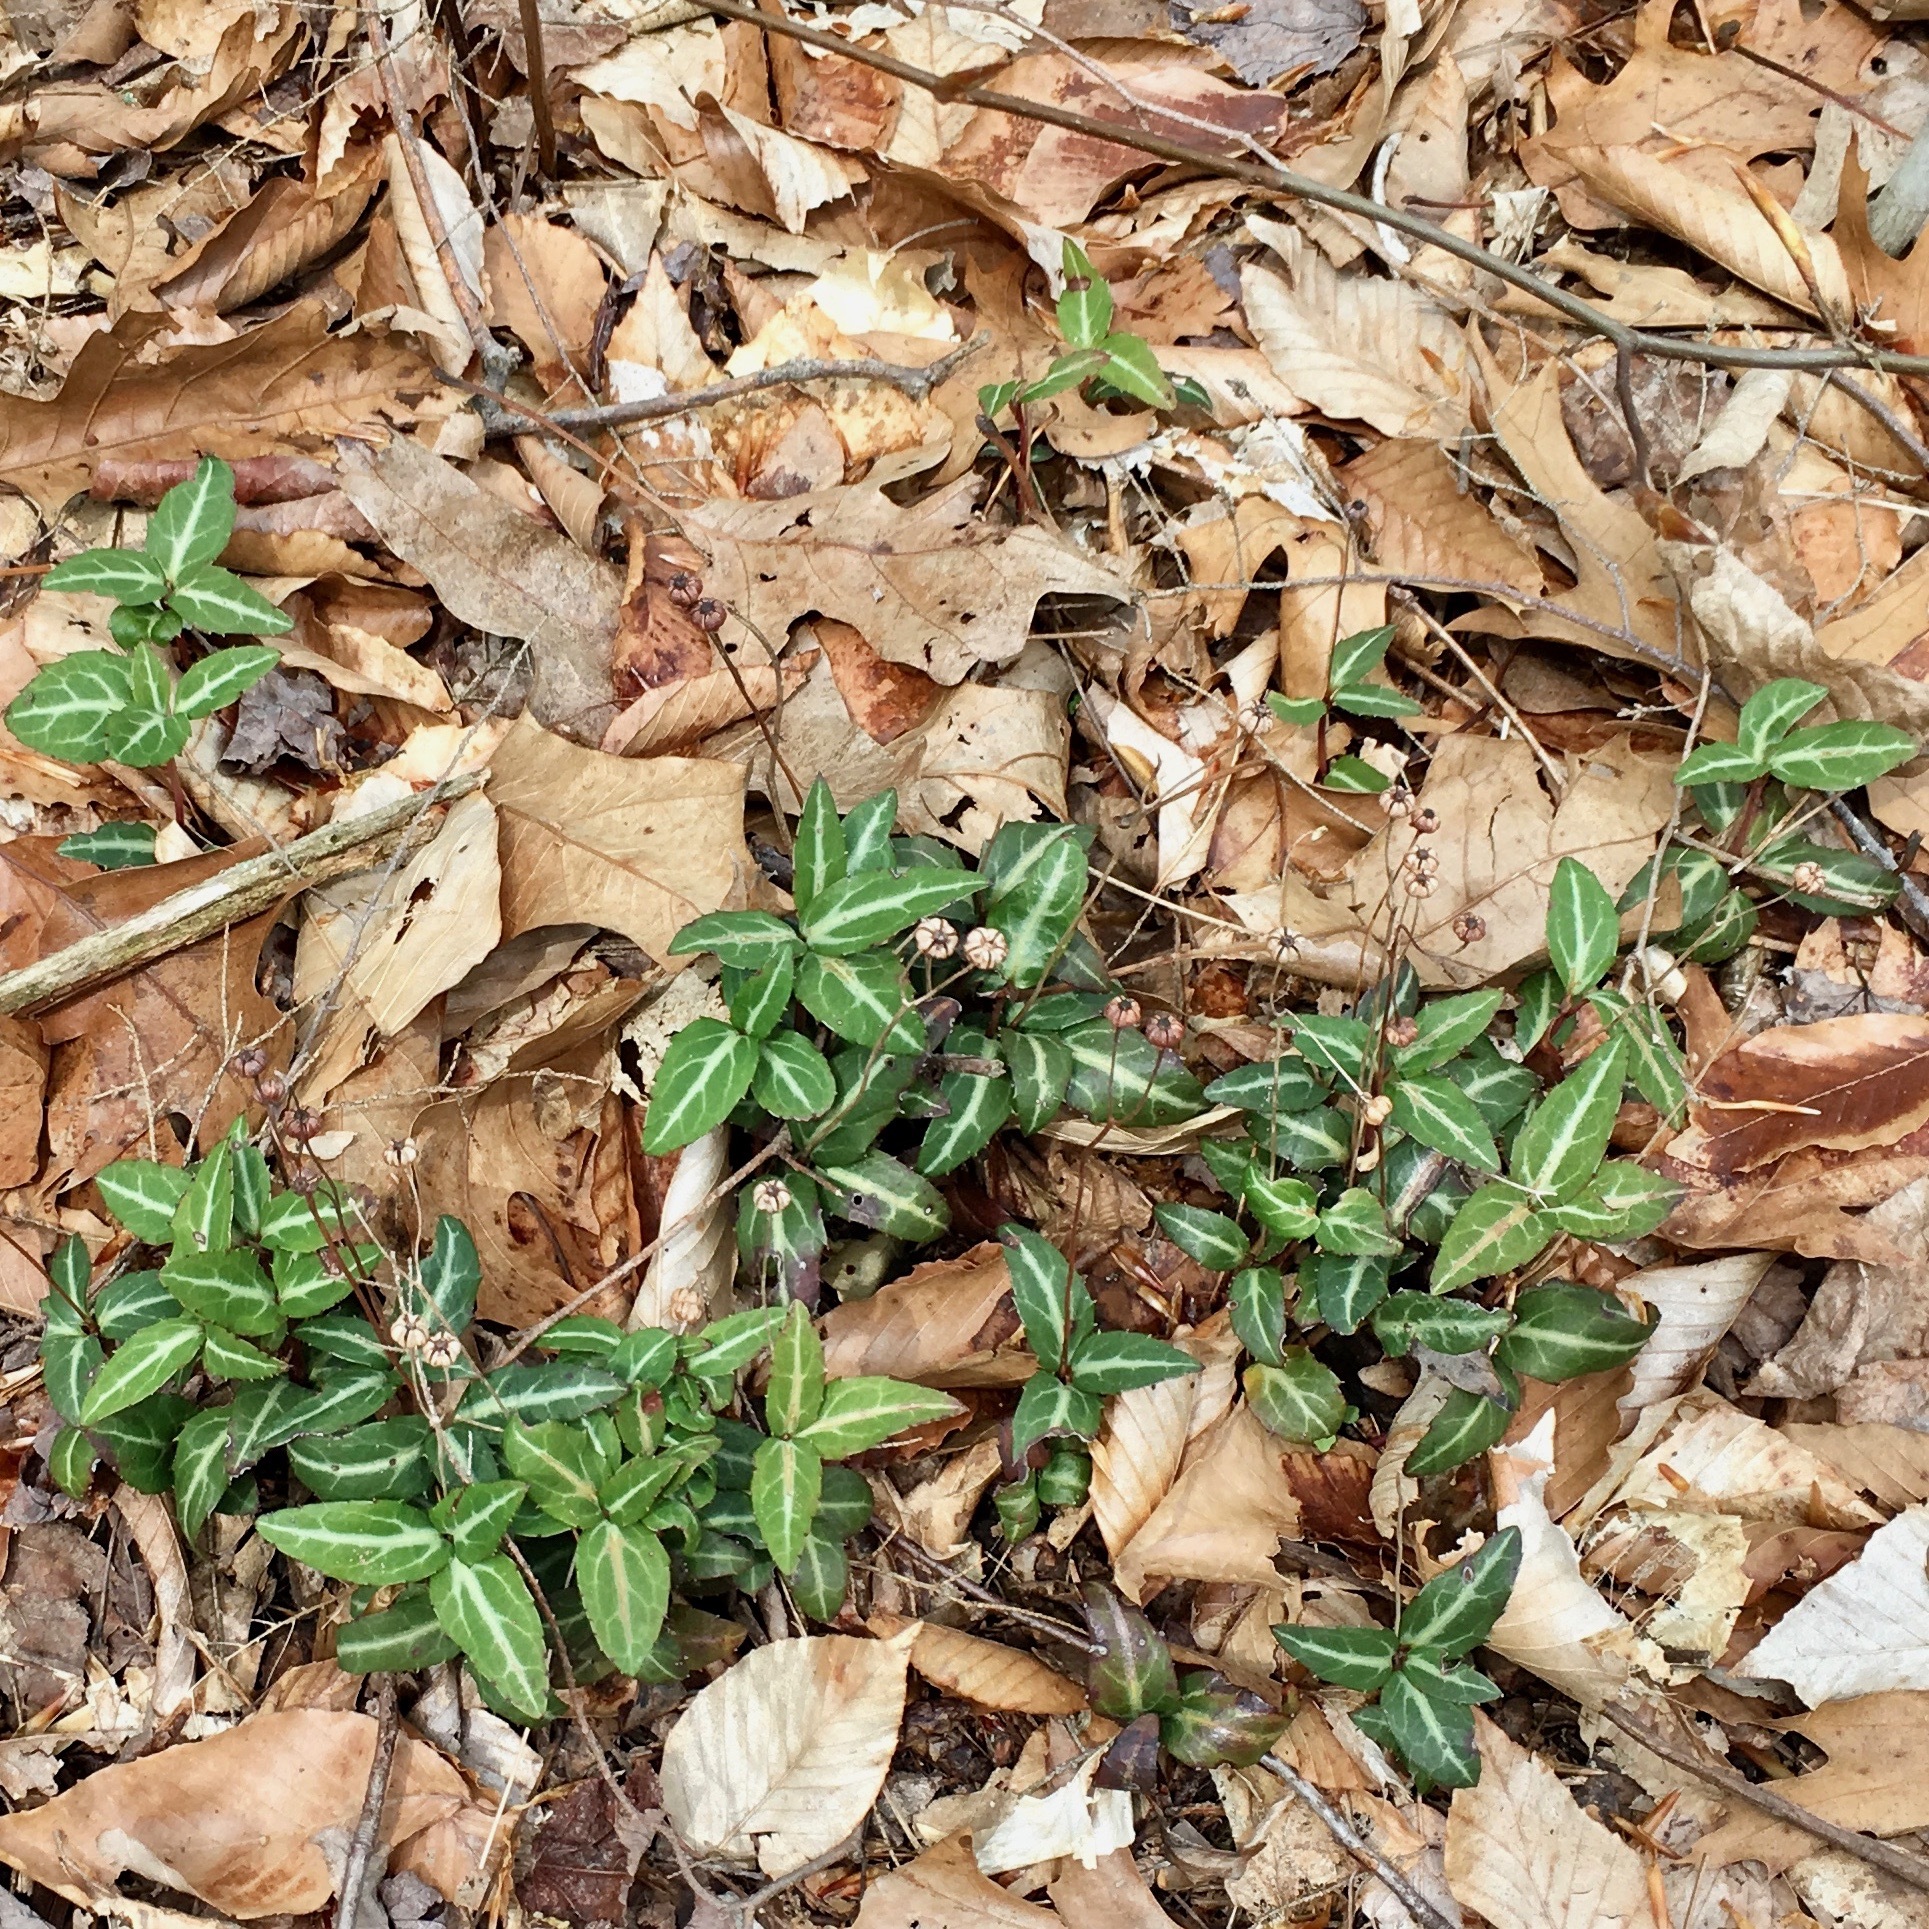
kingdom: Plantae
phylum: Tracheophyta
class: Magnoliopsida
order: Ericales
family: Ericaceae
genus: Chimaphila
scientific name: Chimaphila maculata
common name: Spotted pipsissewa
